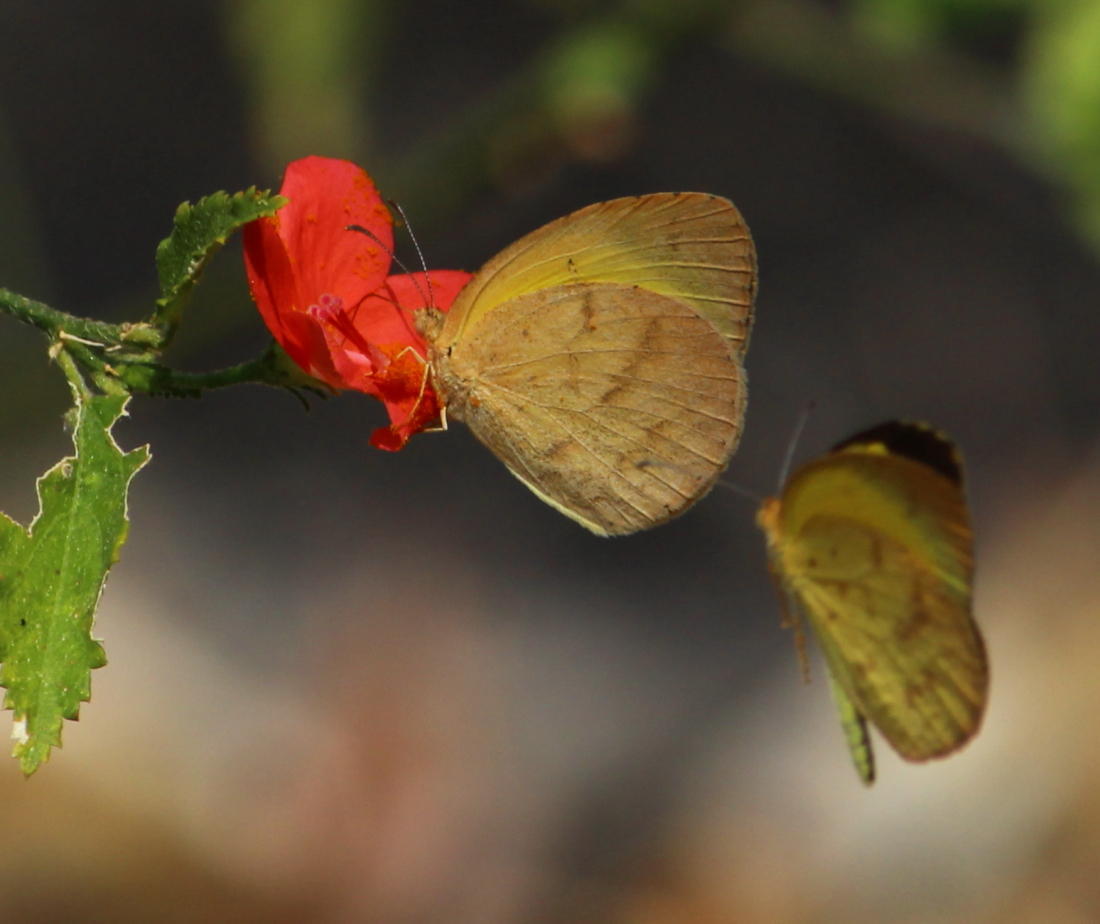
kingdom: Animalia
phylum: Arthropoda
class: Insecta
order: Lepidoptera
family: Pieridae
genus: Eurema
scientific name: Eurema brigitta
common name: Small grass yellow
